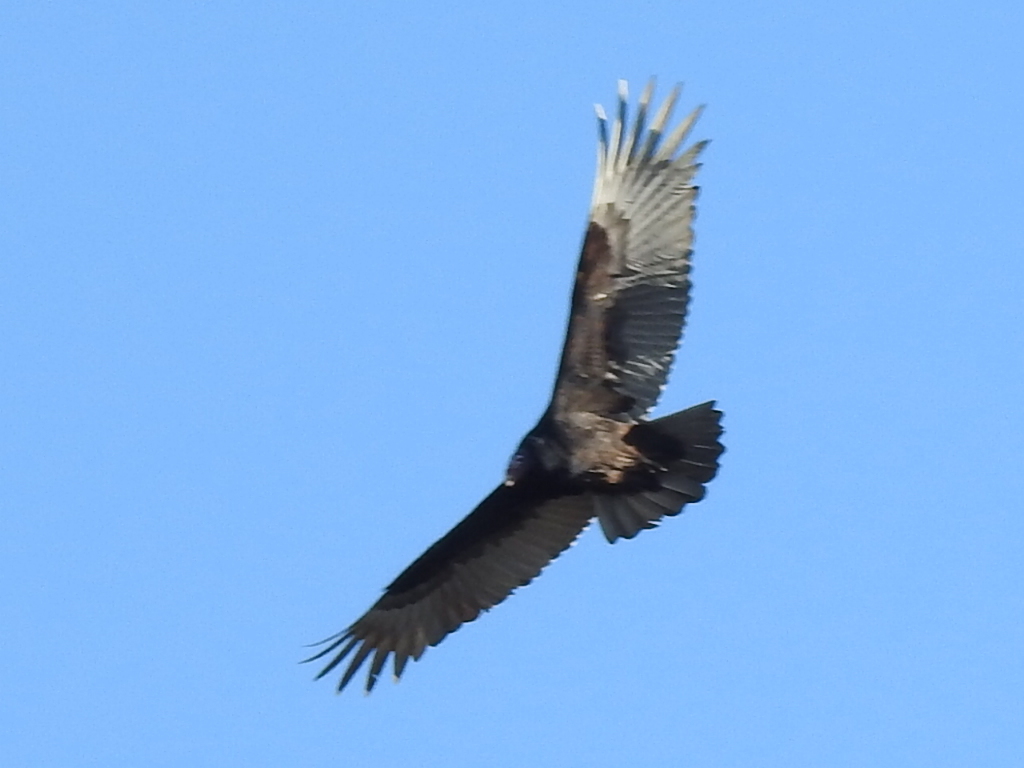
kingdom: Animalia
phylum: Chordata
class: Aves
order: Accipitriformes
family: Cathartidae
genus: Cathartes
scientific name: Cathartes aura
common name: Turkey vulture
